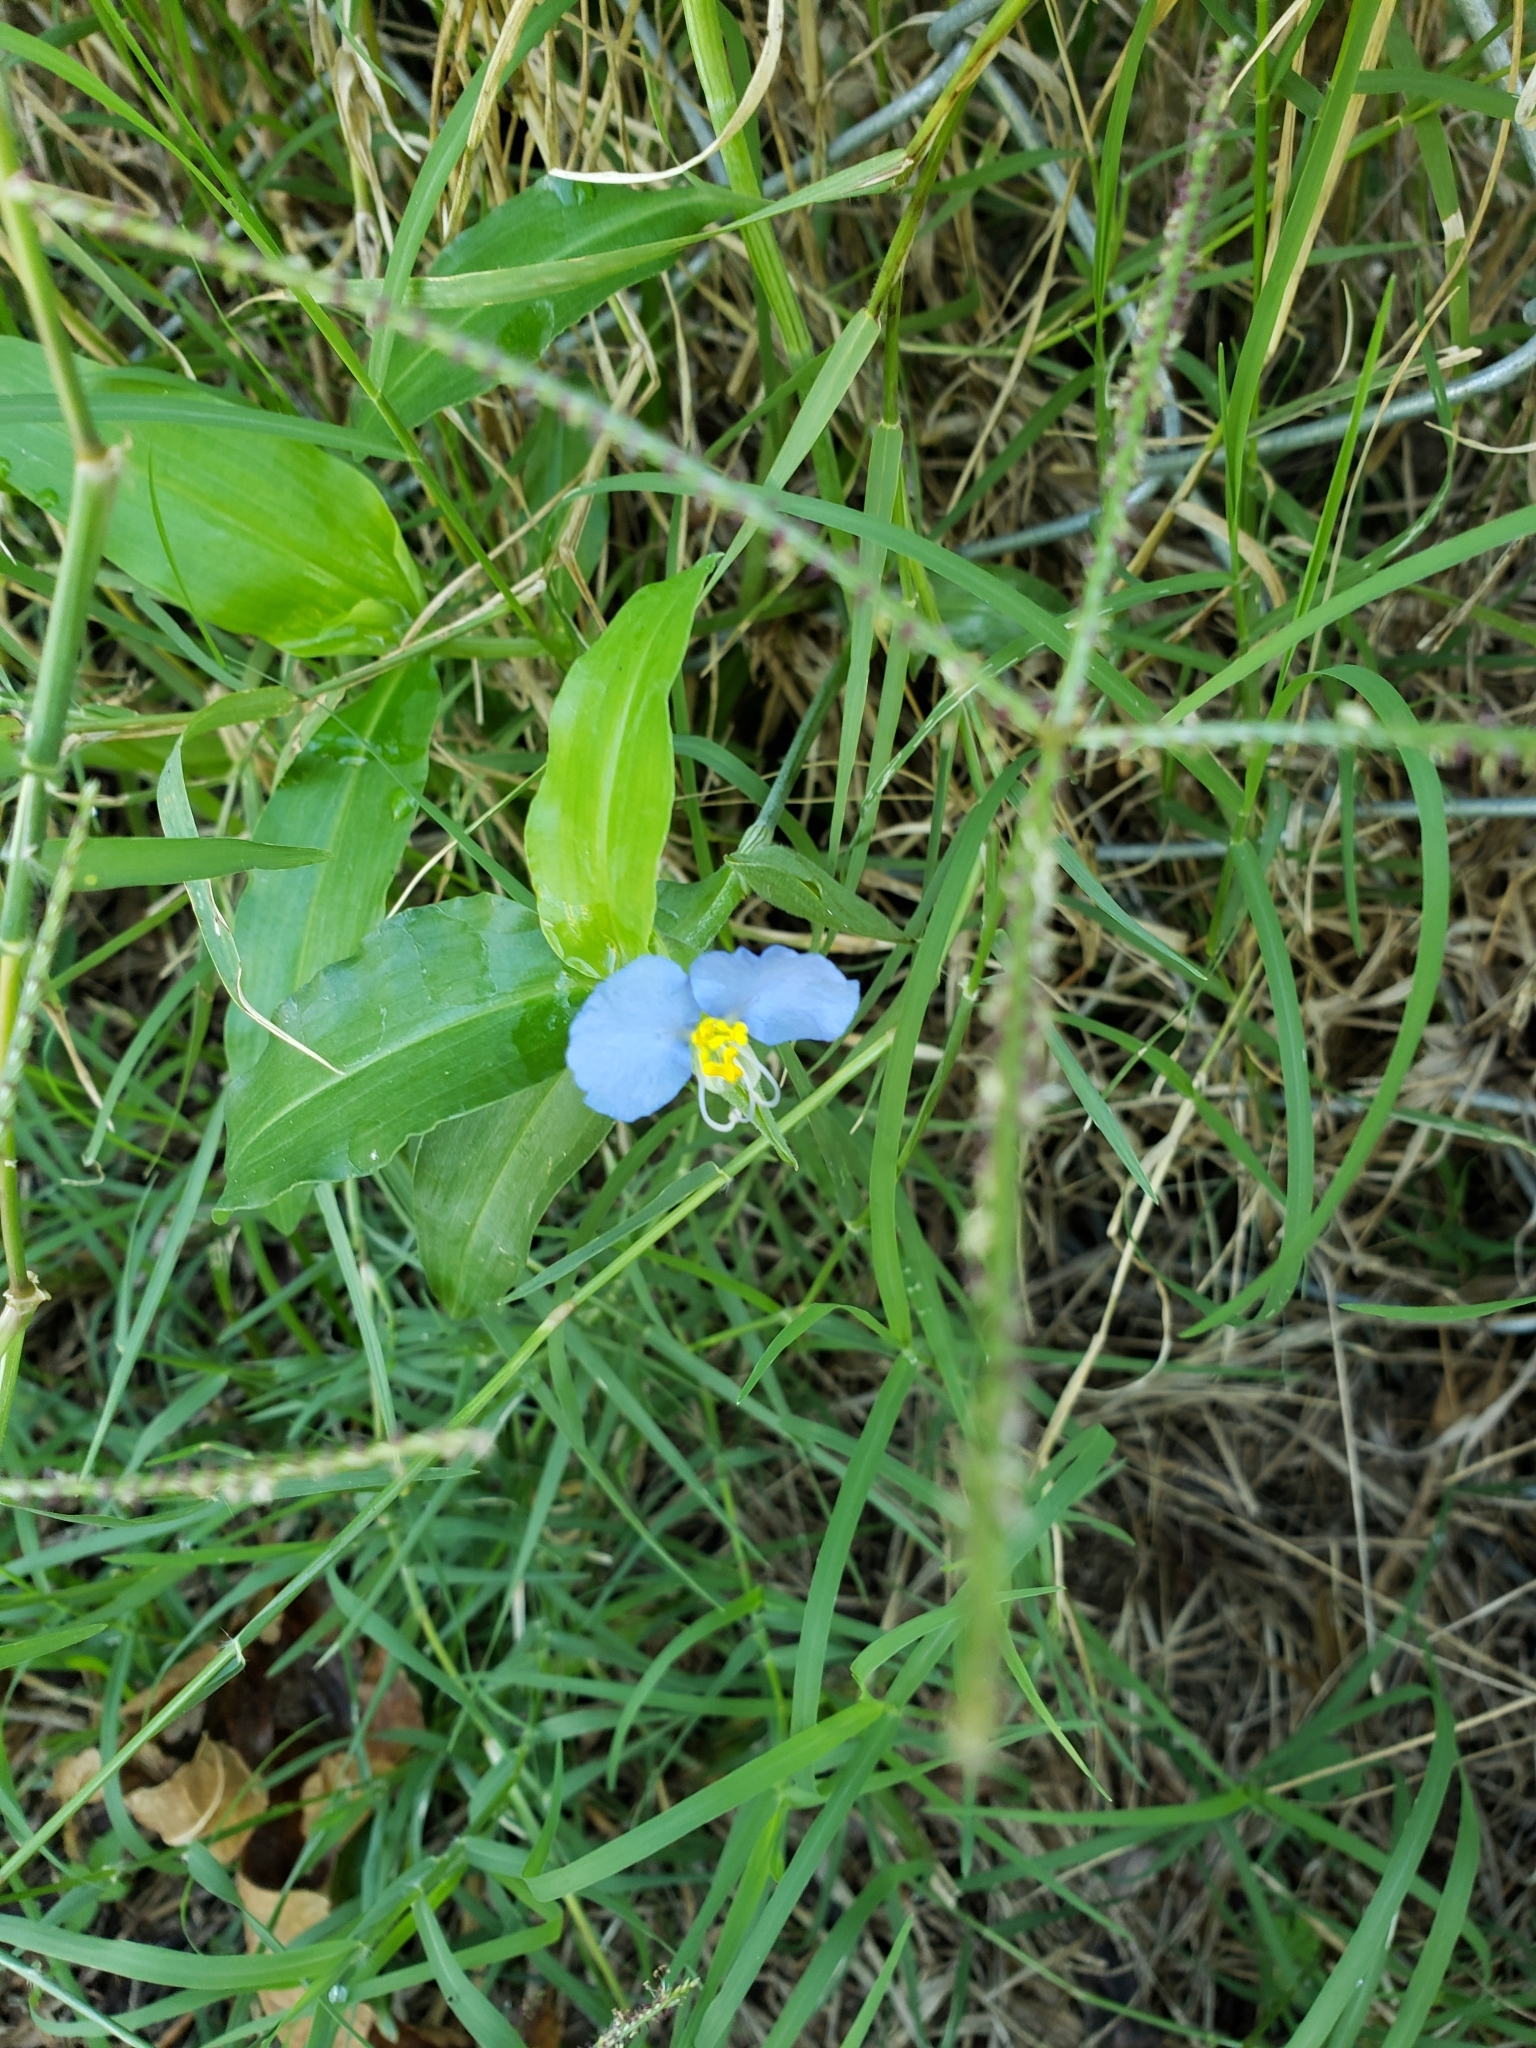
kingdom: Plantae
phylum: Tracheophyta
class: Liliopsida
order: Commelinales
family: Commelinaceae
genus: Commelina
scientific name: Commelina erecta
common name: Blousel blommetjie
